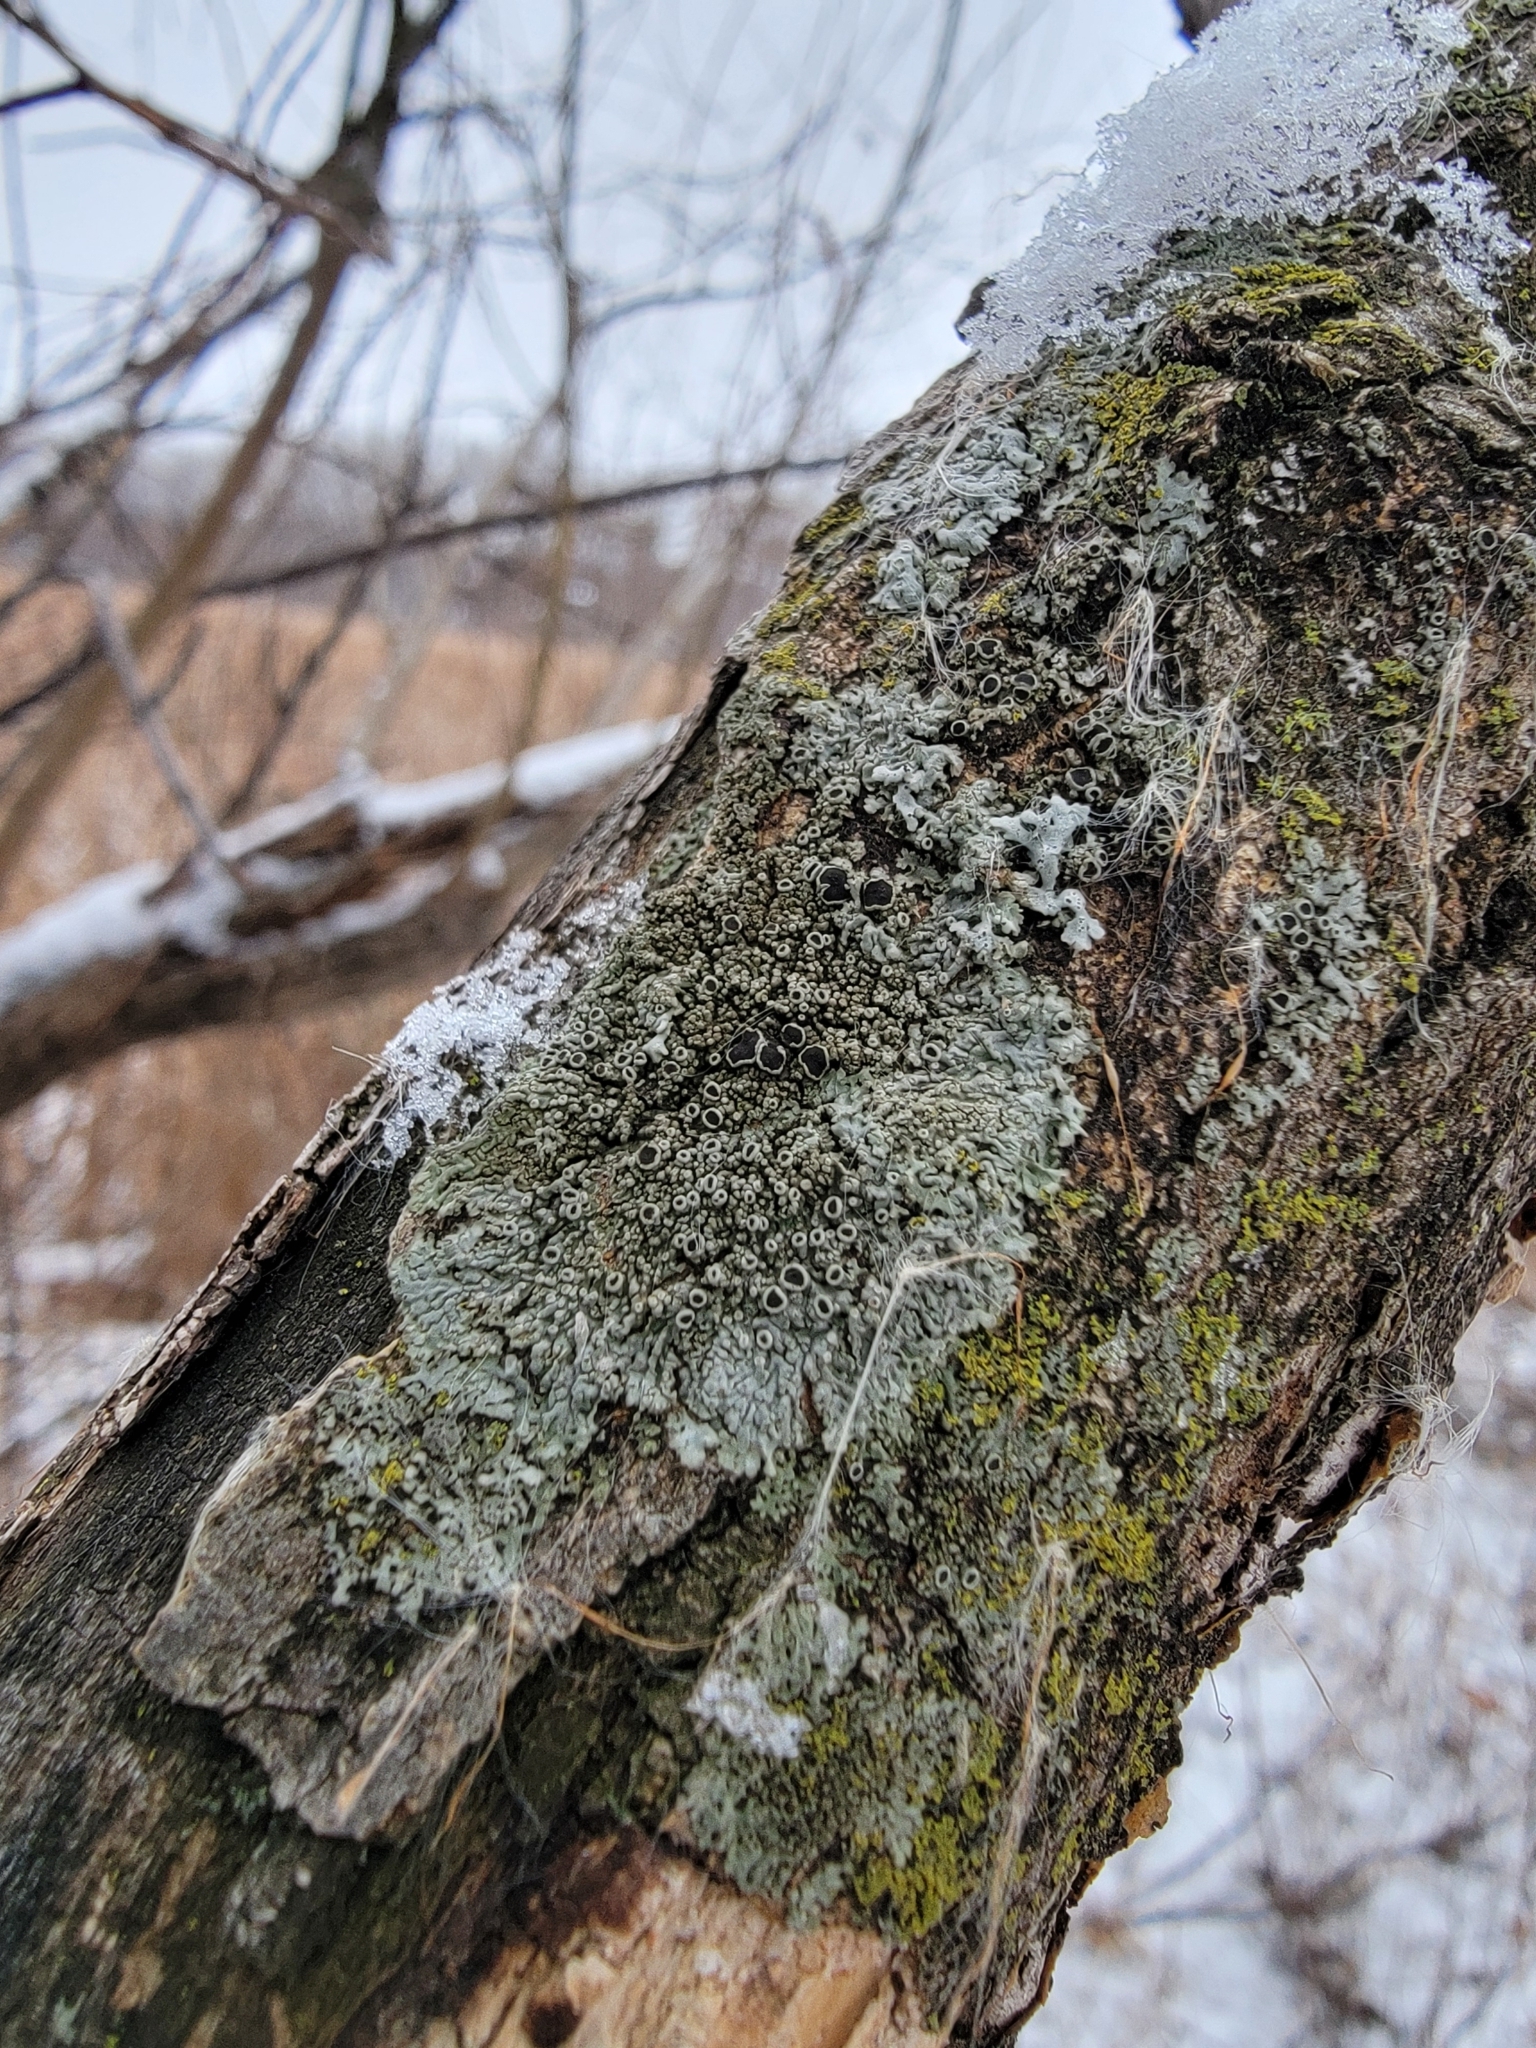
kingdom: Fungi
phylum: Ascomycota
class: Lecanoromycetes
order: Caliciales
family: Physciaceae
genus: Hyperphyscia
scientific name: Hyperphyscia syncolla
